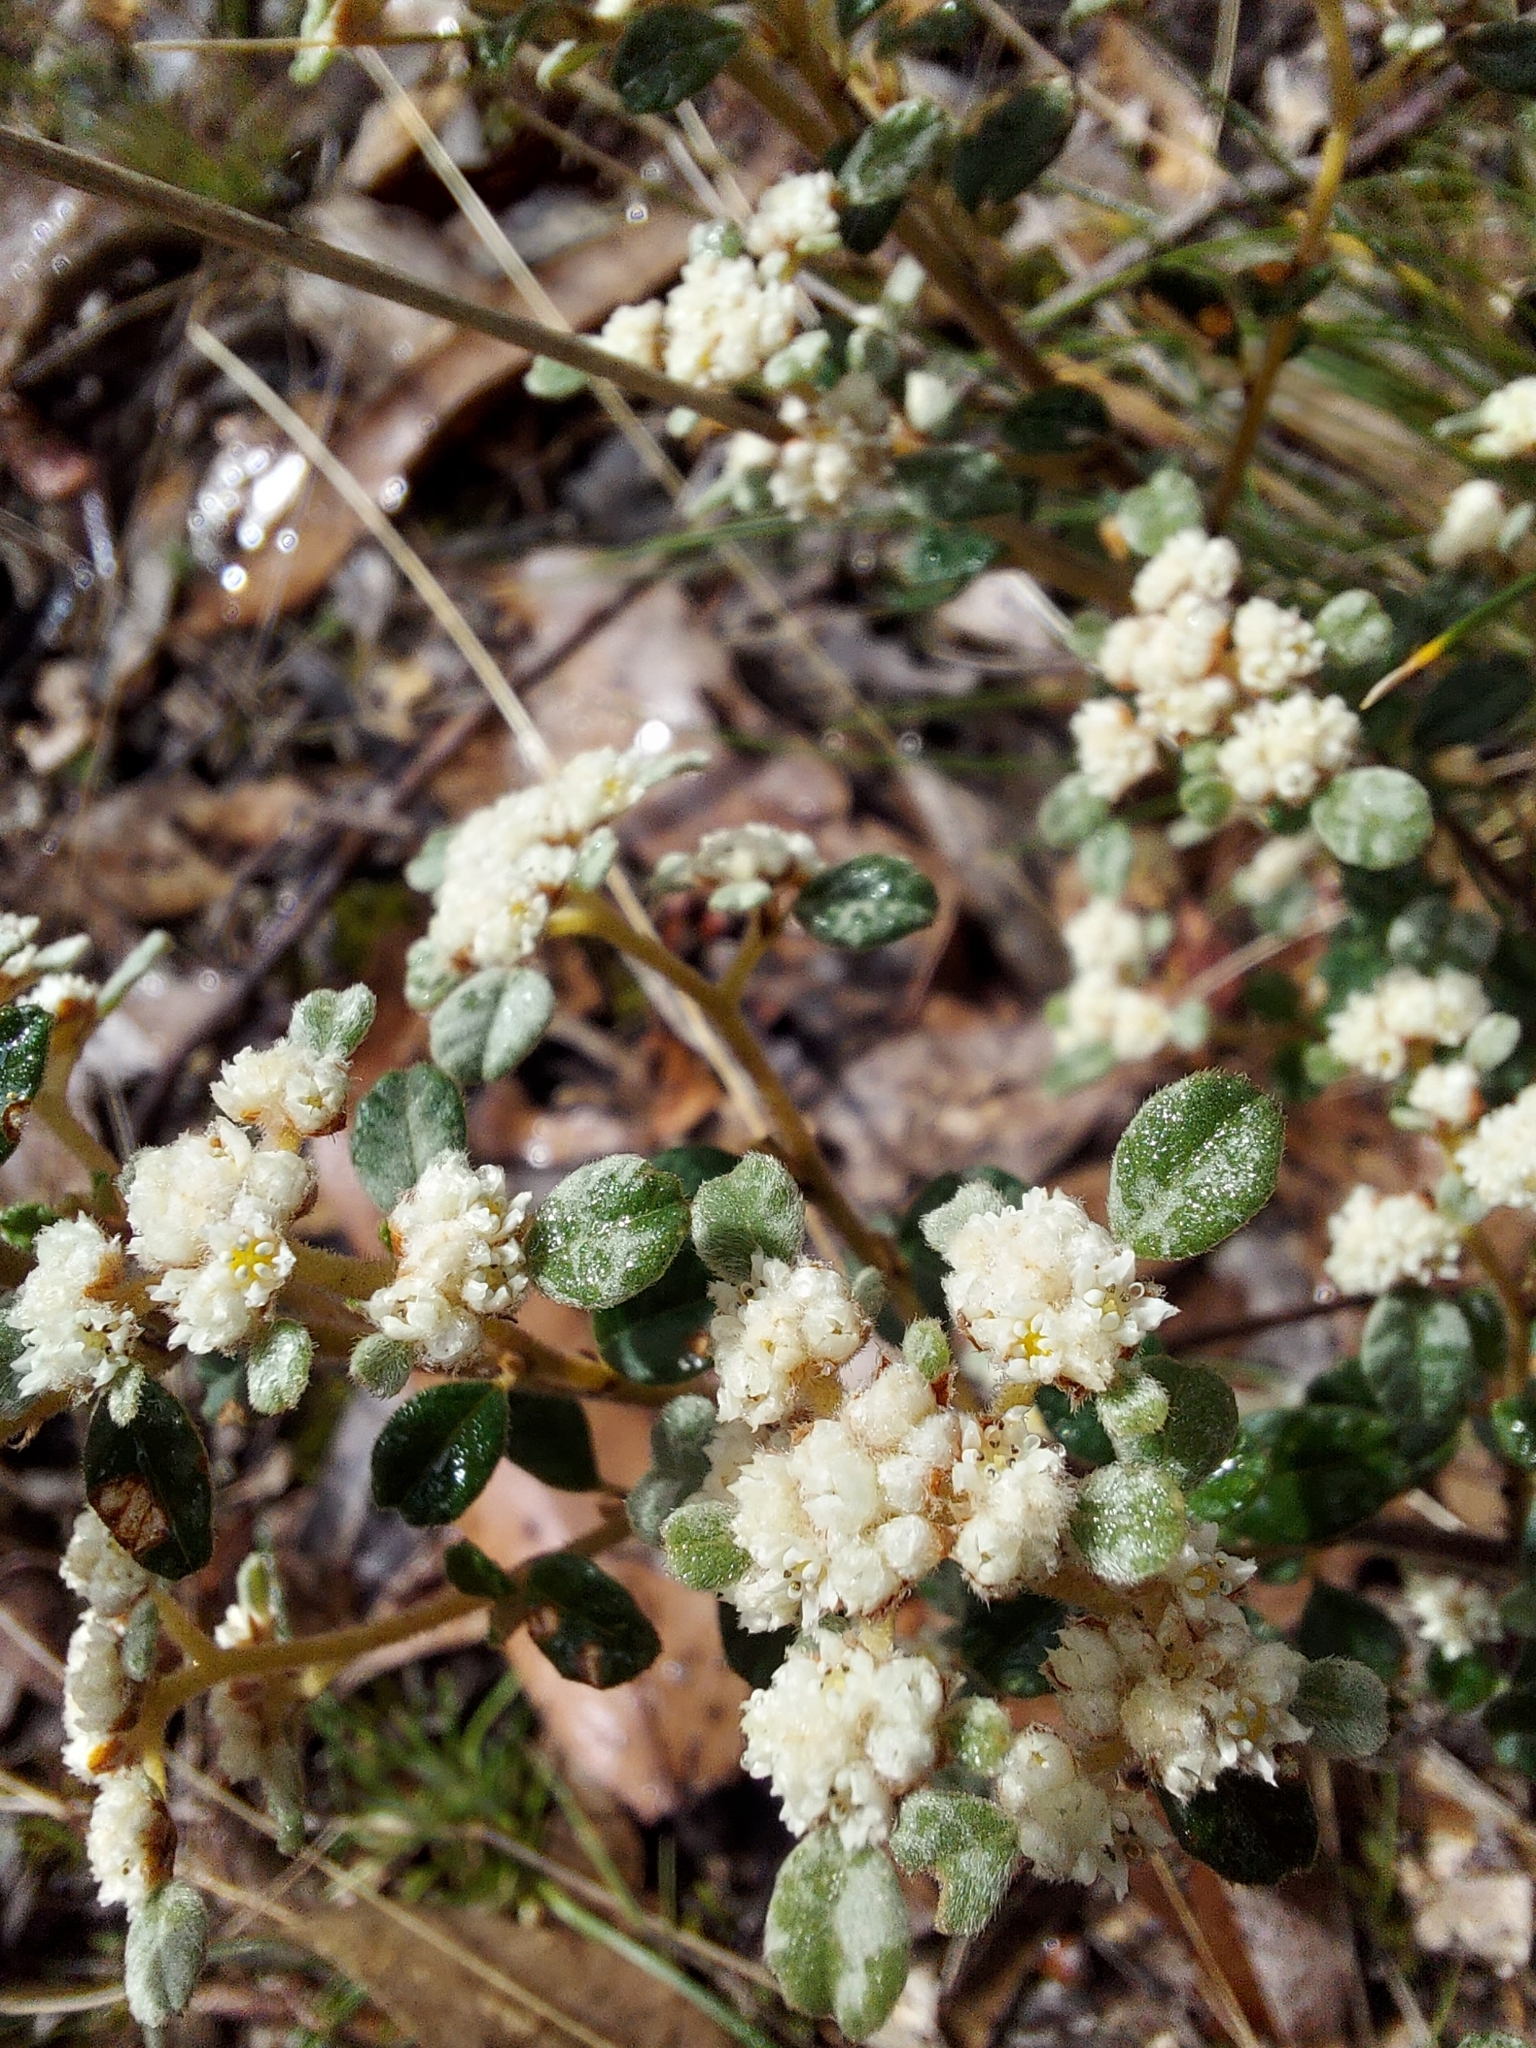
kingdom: Plantae
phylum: Tracheophyta
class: Magnoliopsida
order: Rosales
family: Rhamnaceae
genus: Spyridium
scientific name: Spyridium parvifolium
